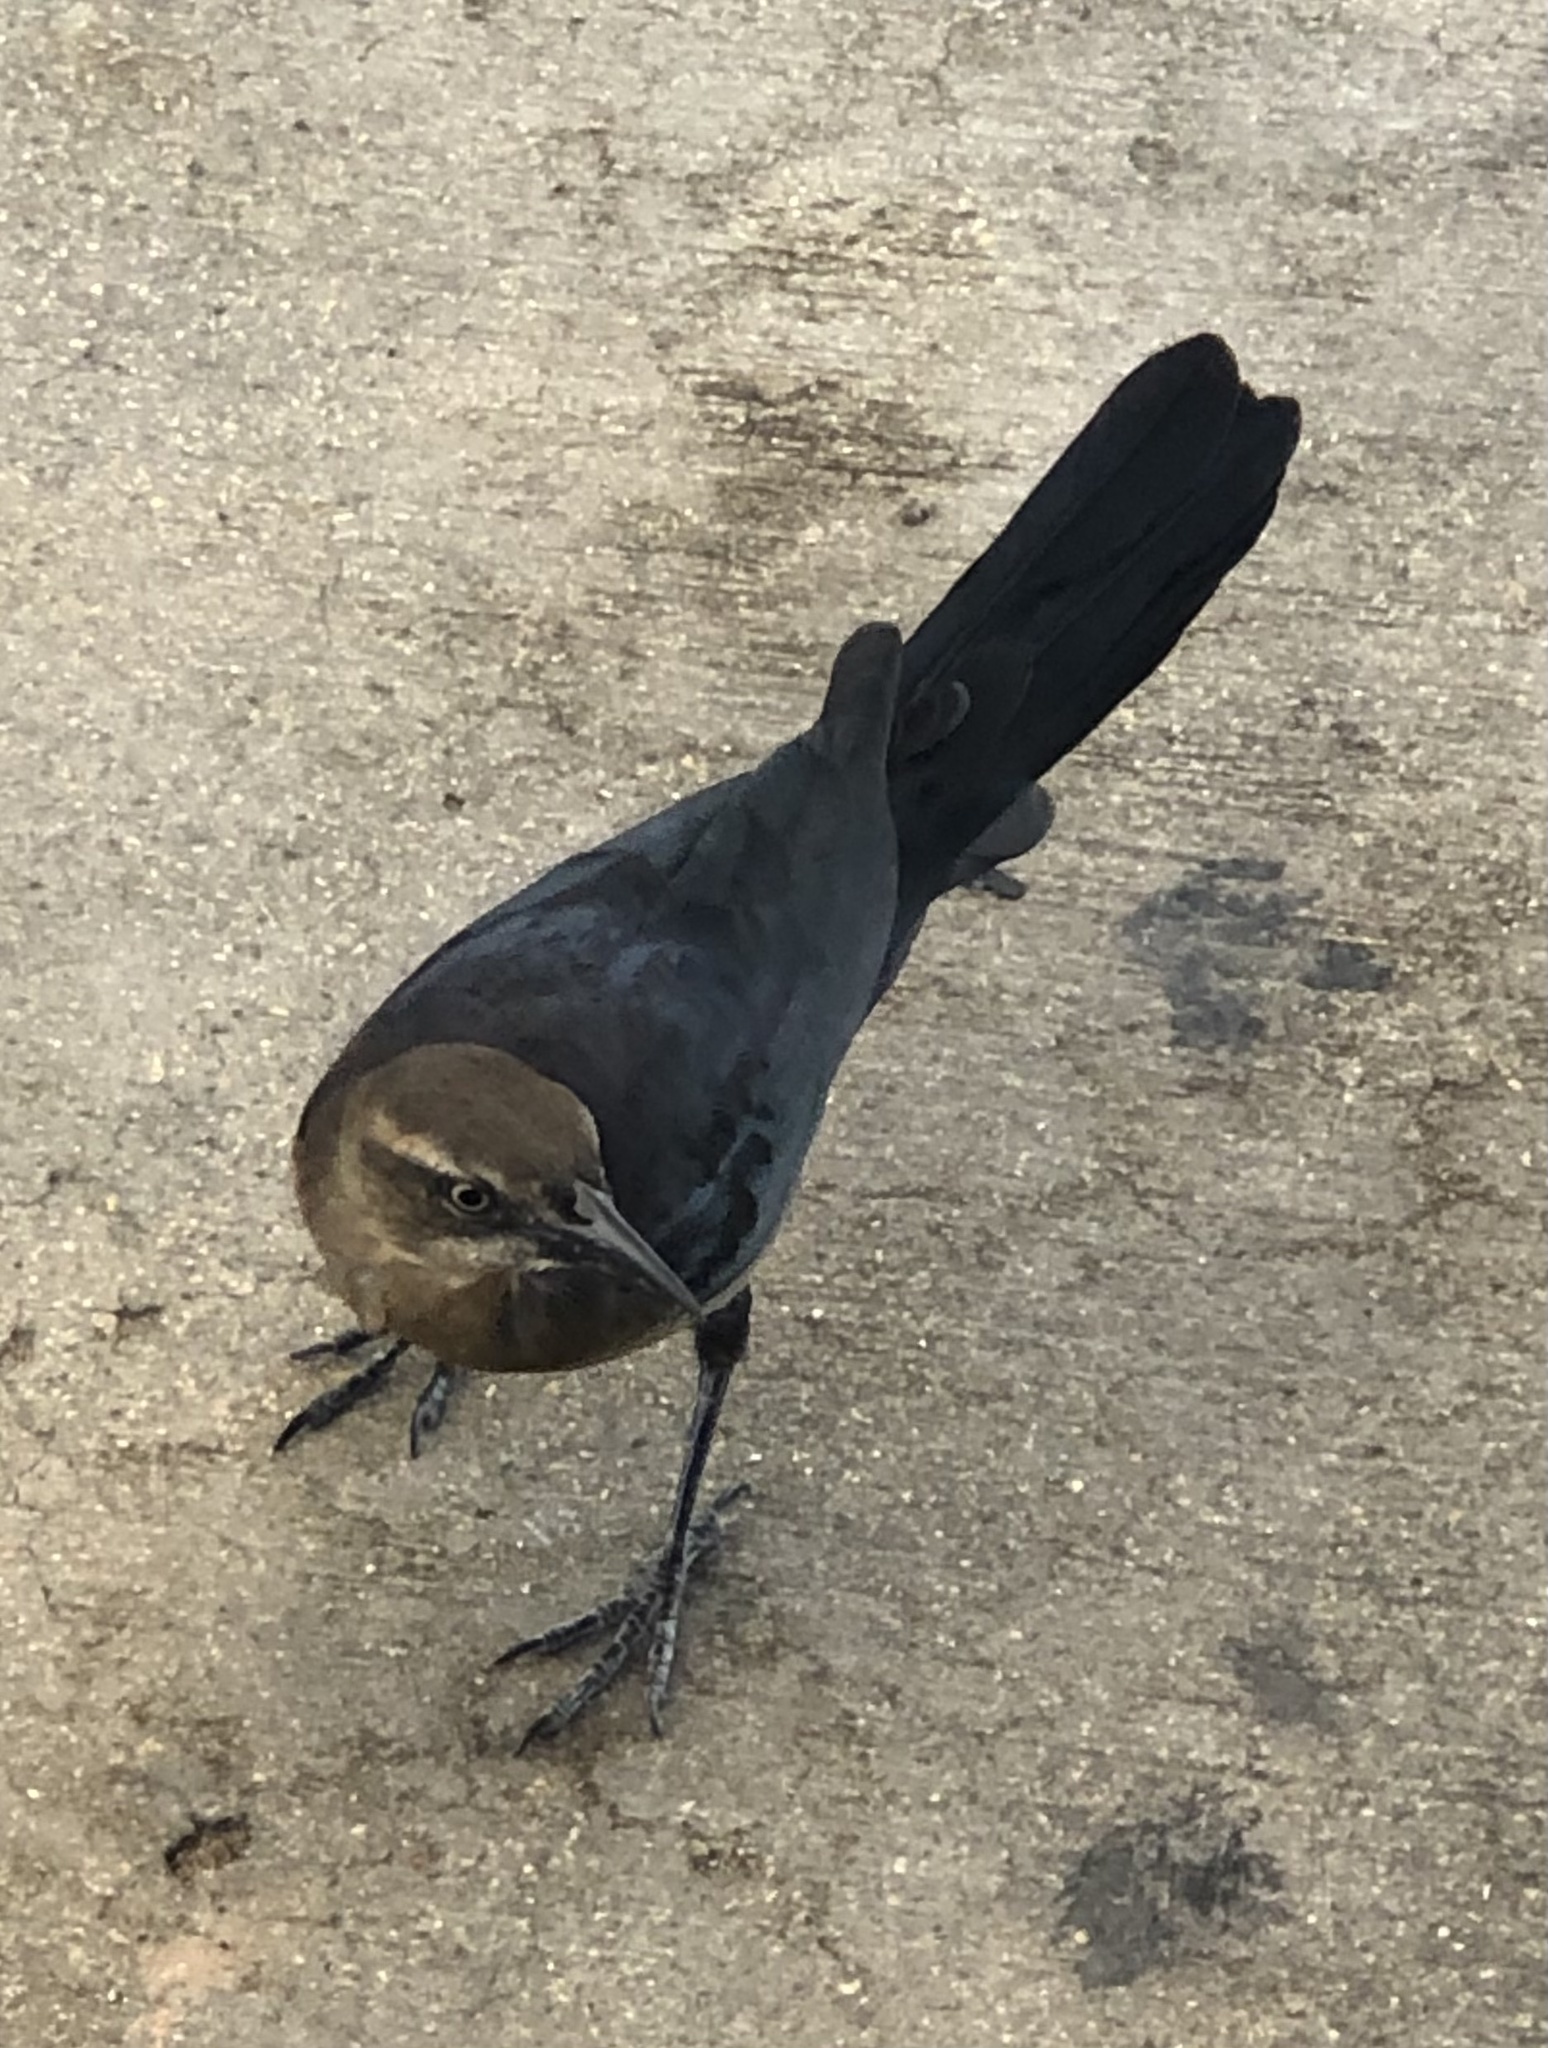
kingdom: Animalia
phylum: Chordata
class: Aves
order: Passeriformes
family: Icteridae
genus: Quiscalus
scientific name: Quiscalus mexicanus
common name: Great-tailed grackle
